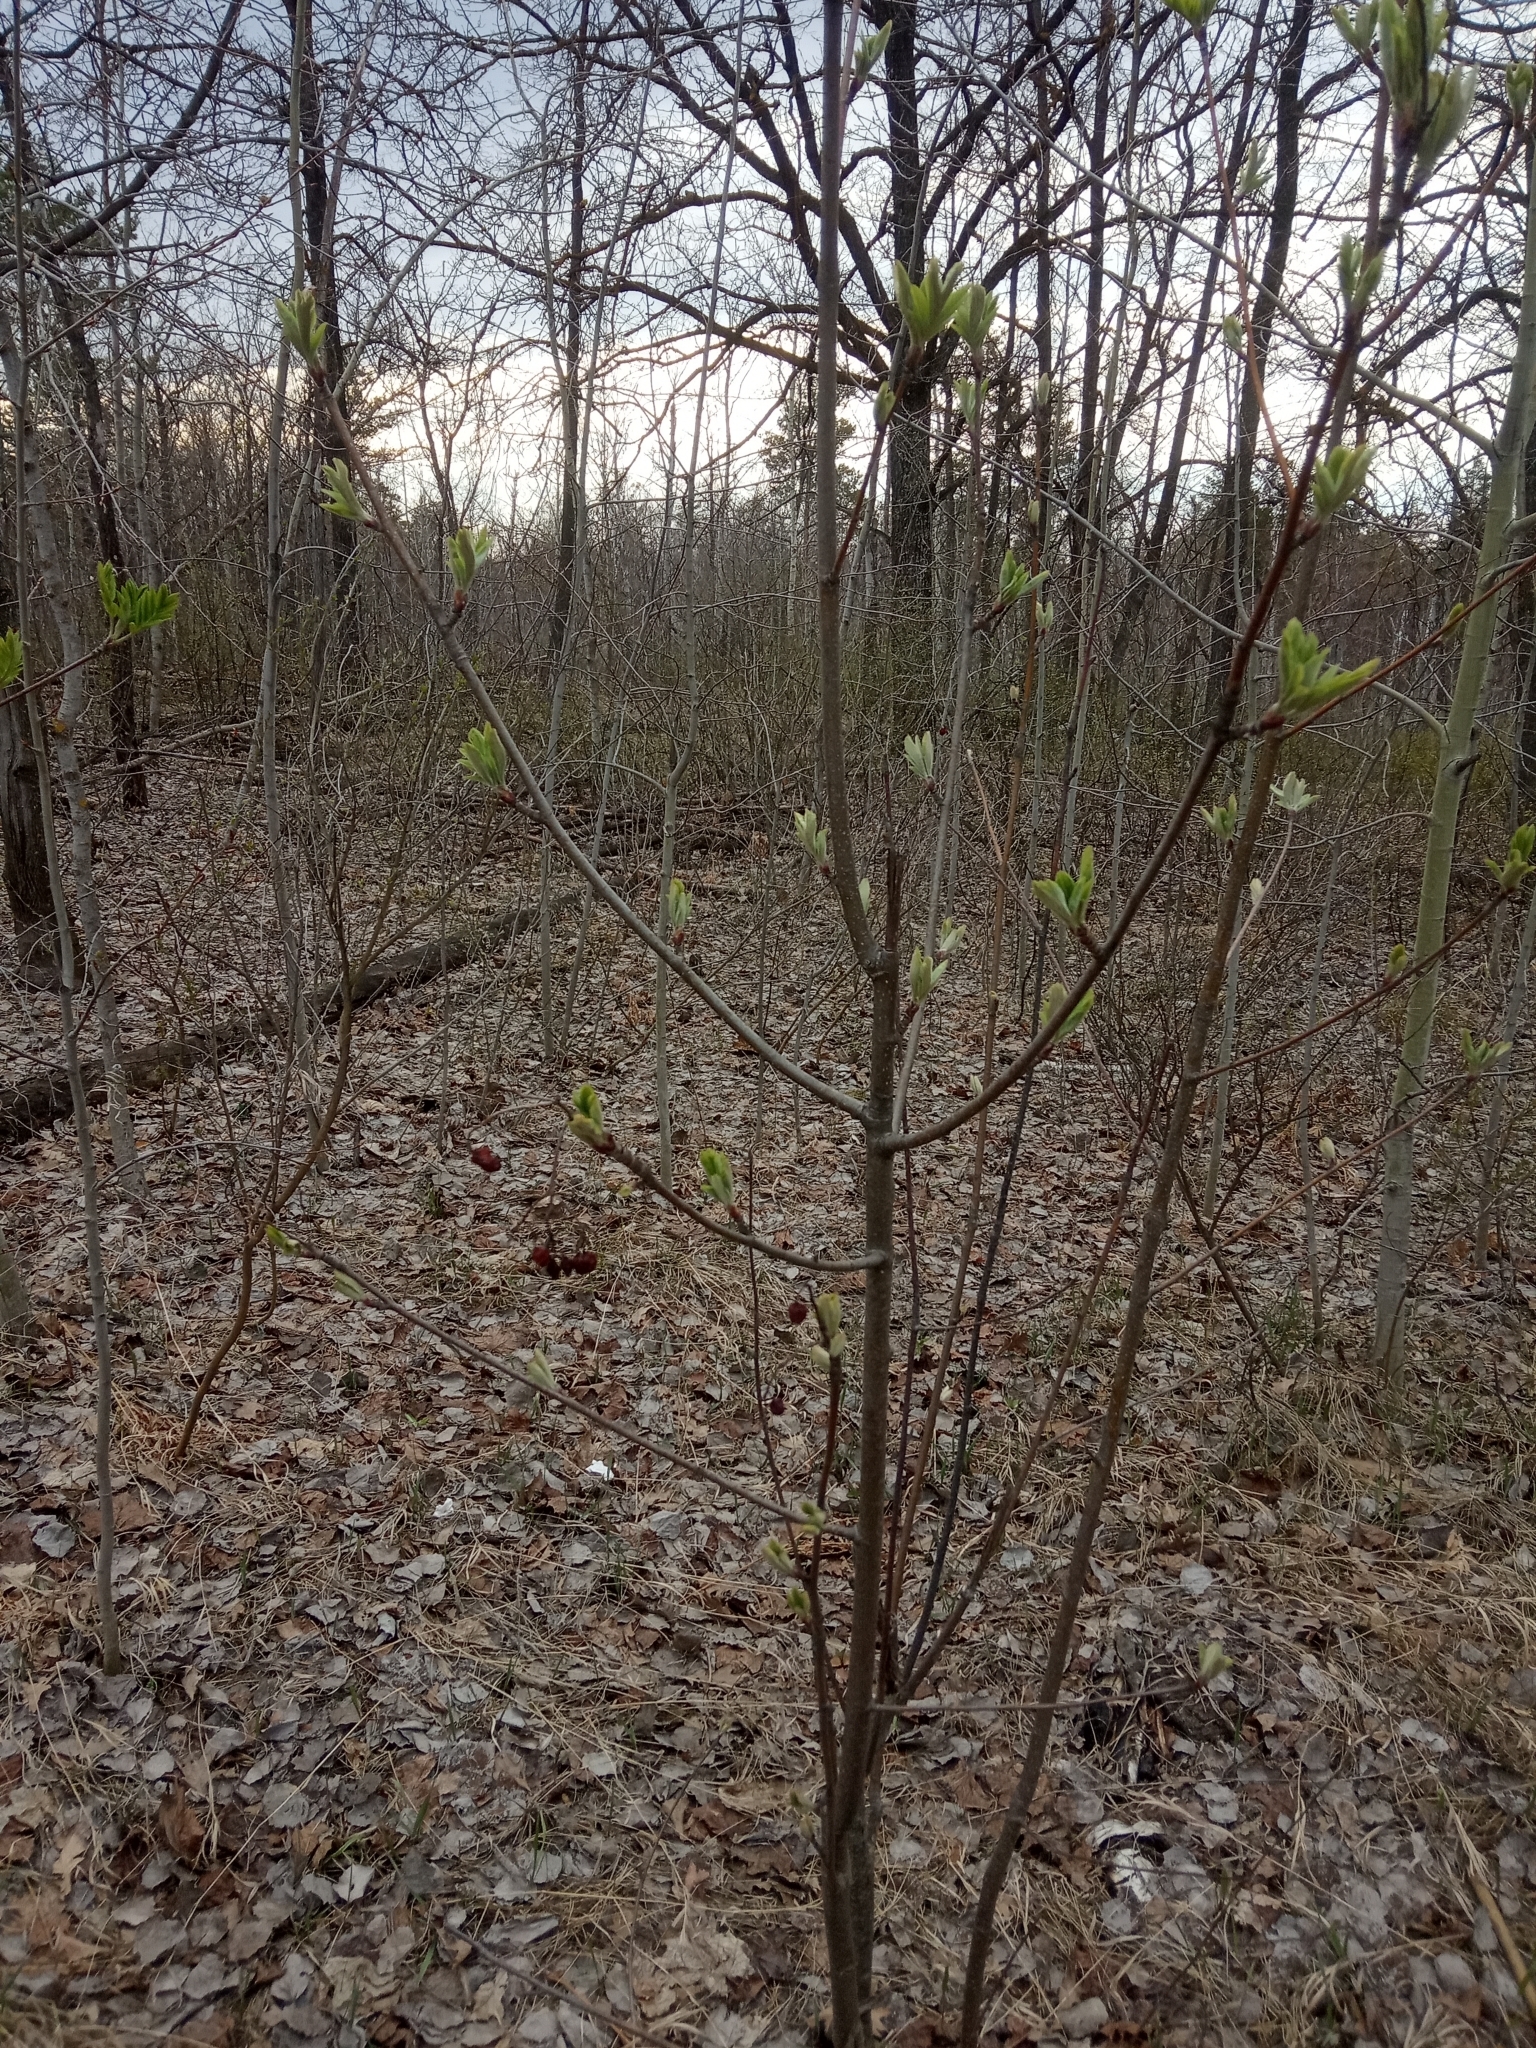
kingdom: Plantae
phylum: Tracheophyta
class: Magnoliopsida
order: Rosales
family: Rosaceae
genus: Sorbus
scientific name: Sorbus aucuparia
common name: Rowan
